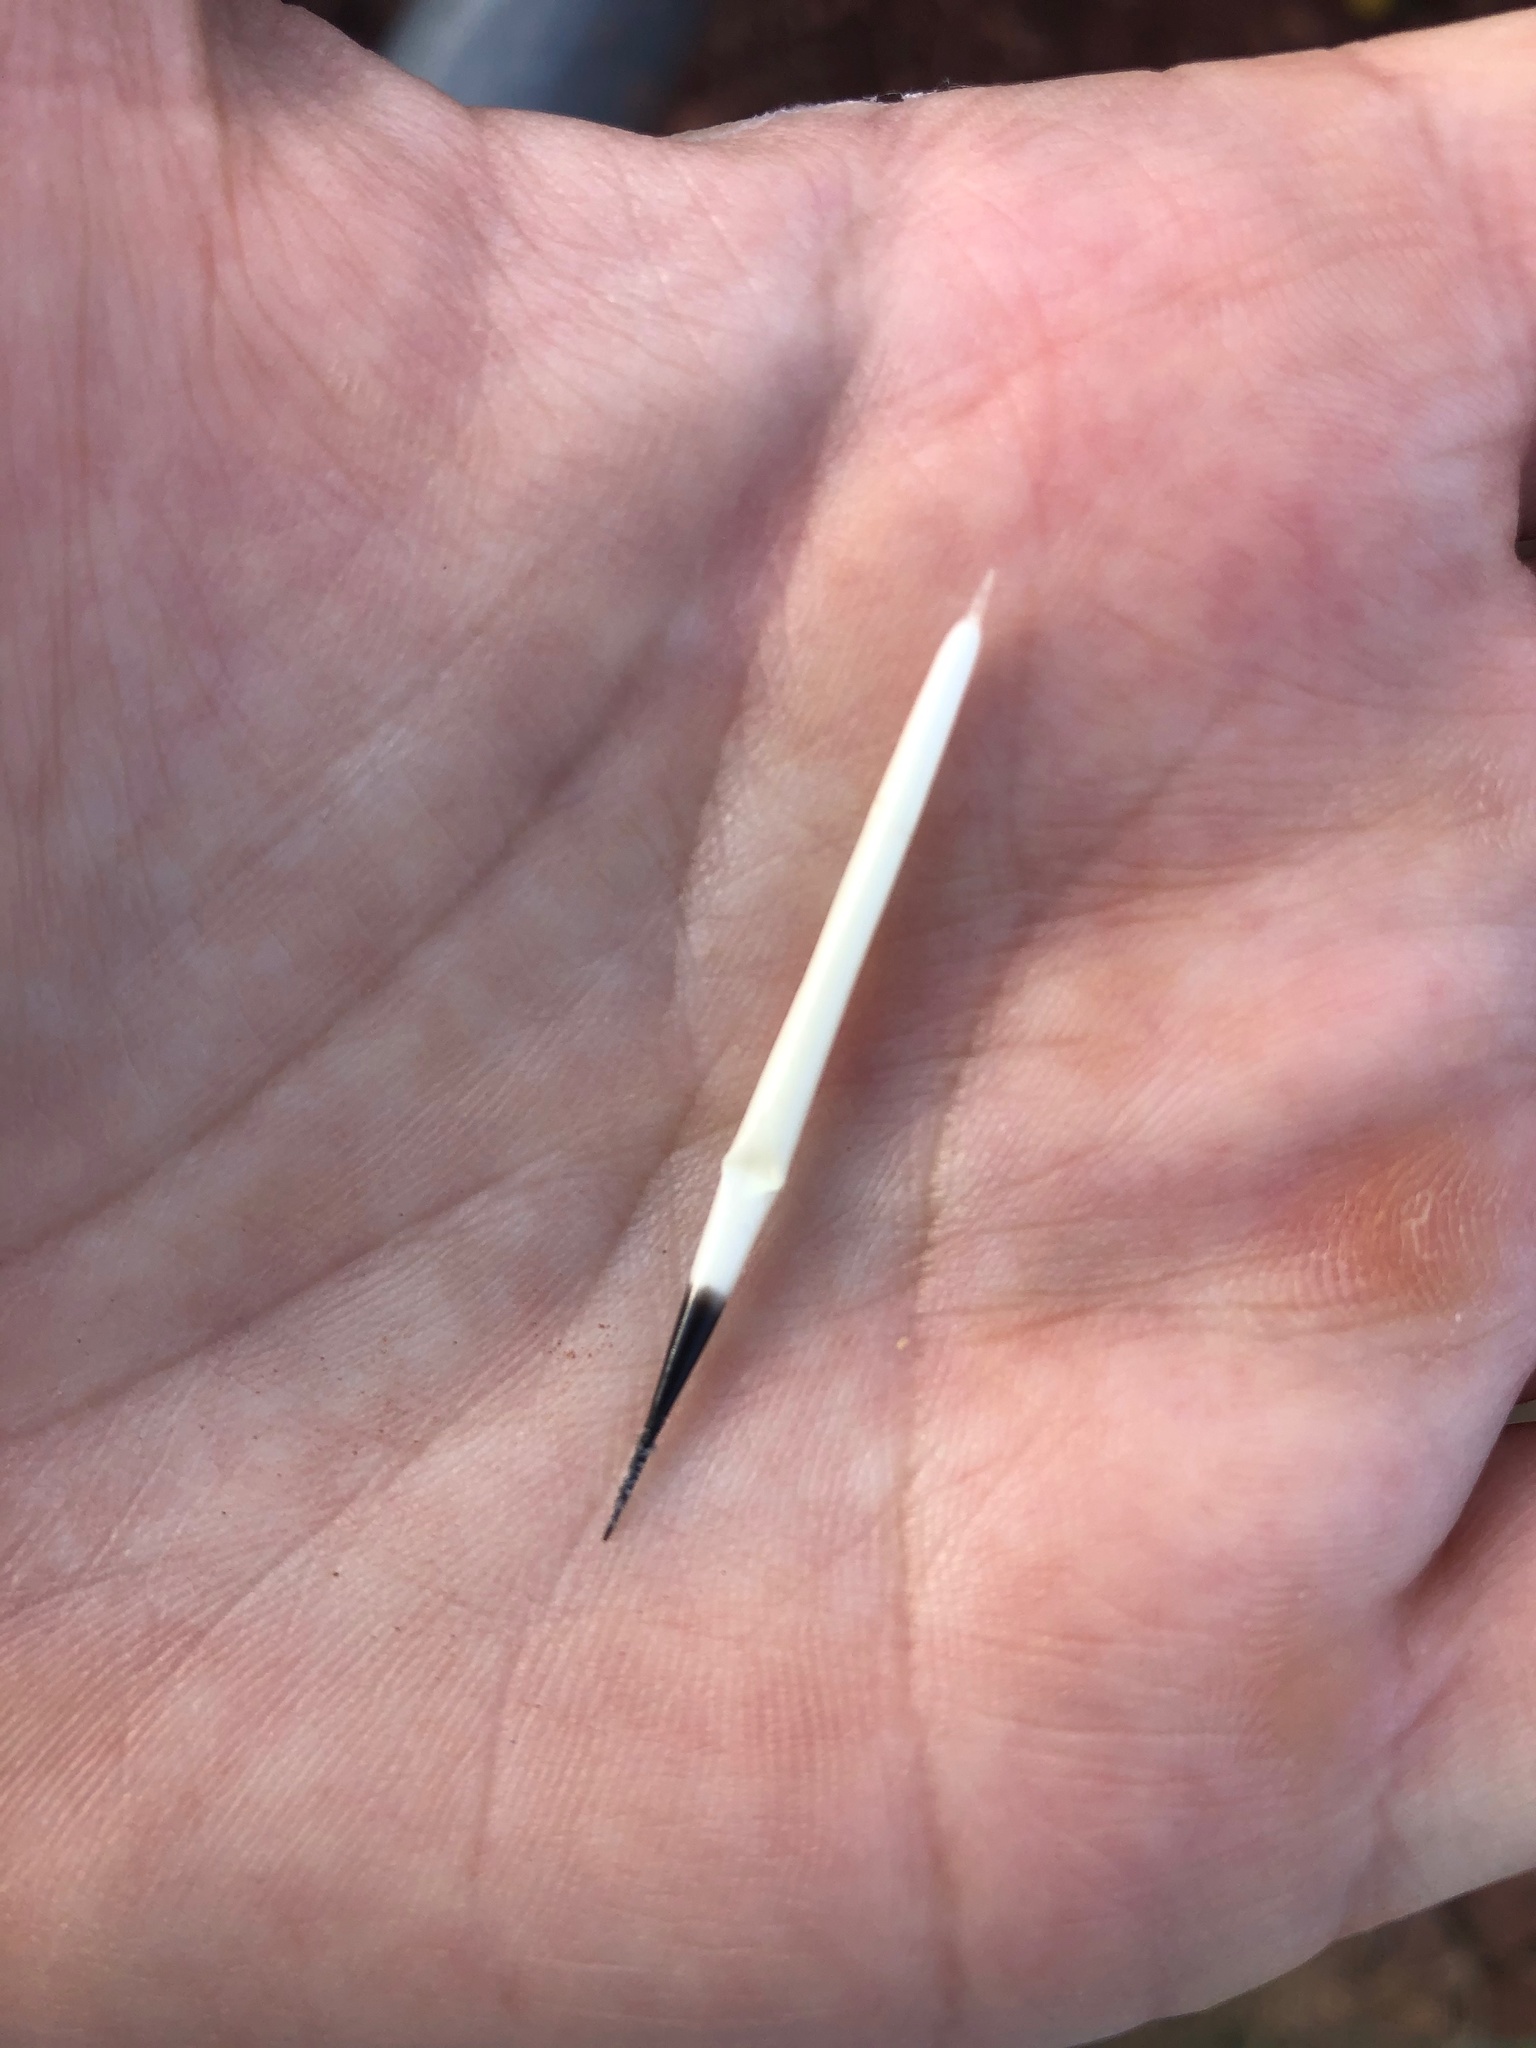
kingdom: Animalia
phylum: Chordata
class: Mammalia
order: Rodentia
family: Erethizontidae
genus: Erethizon
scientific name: Erethizon dorsatus
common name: North american porcupine
